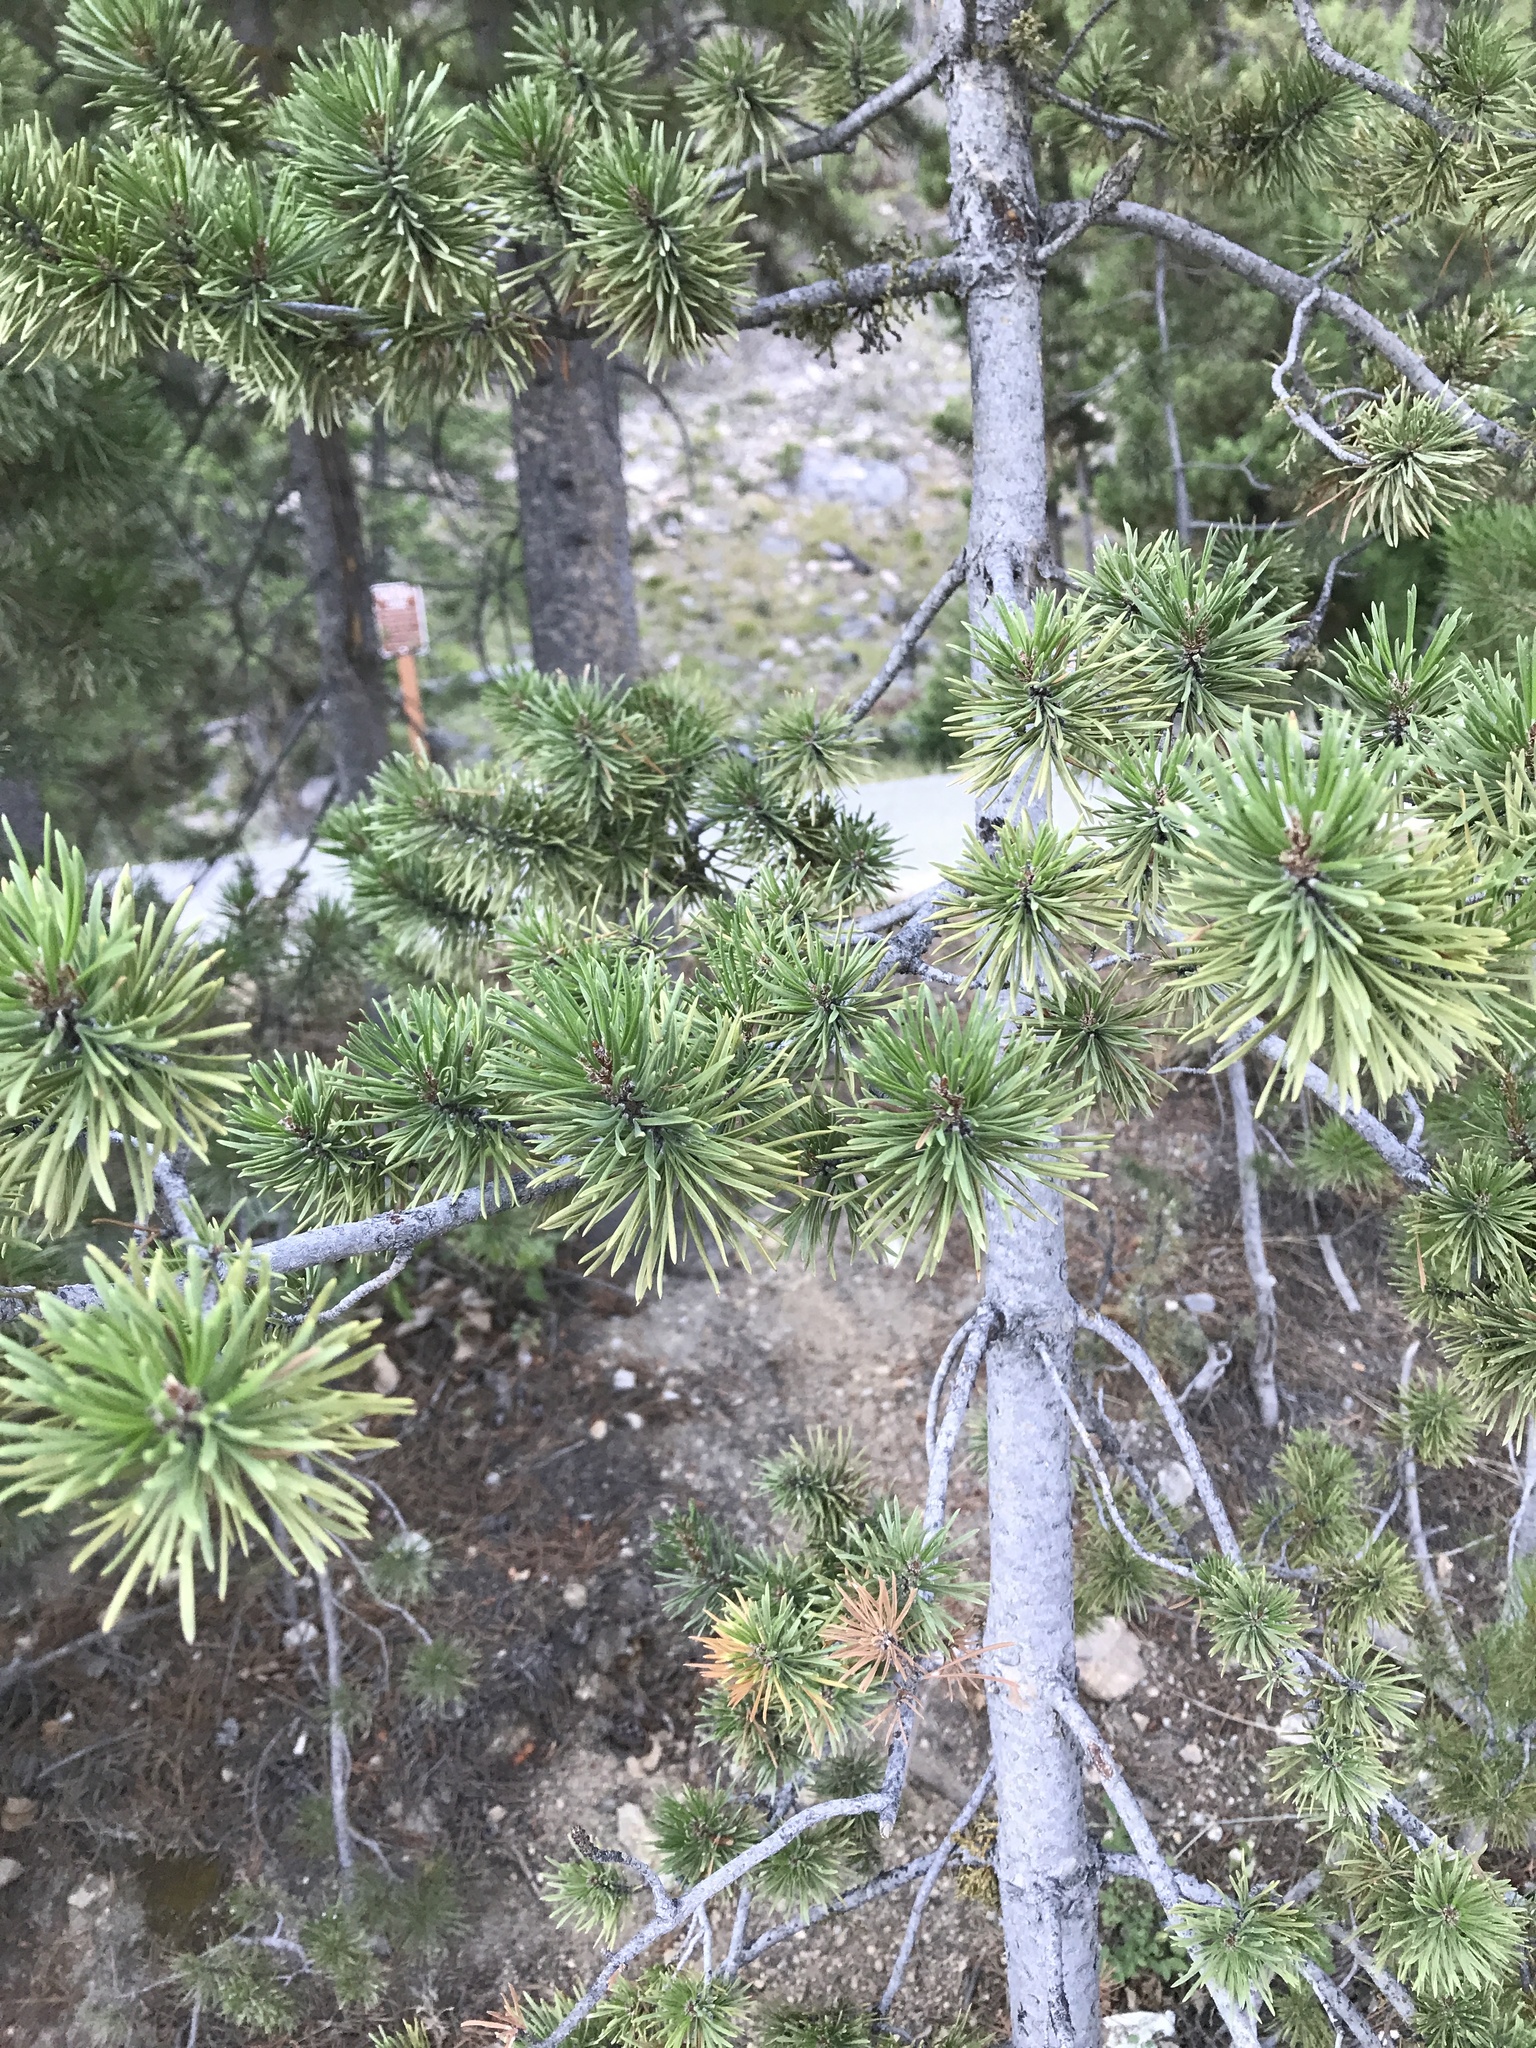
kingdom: Plantae
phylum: Tracheophyta
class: Pinopsida
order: Pinales
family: Pinaceae
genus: Pinus
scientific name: Pinus contorta
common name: Lodgepole pine
